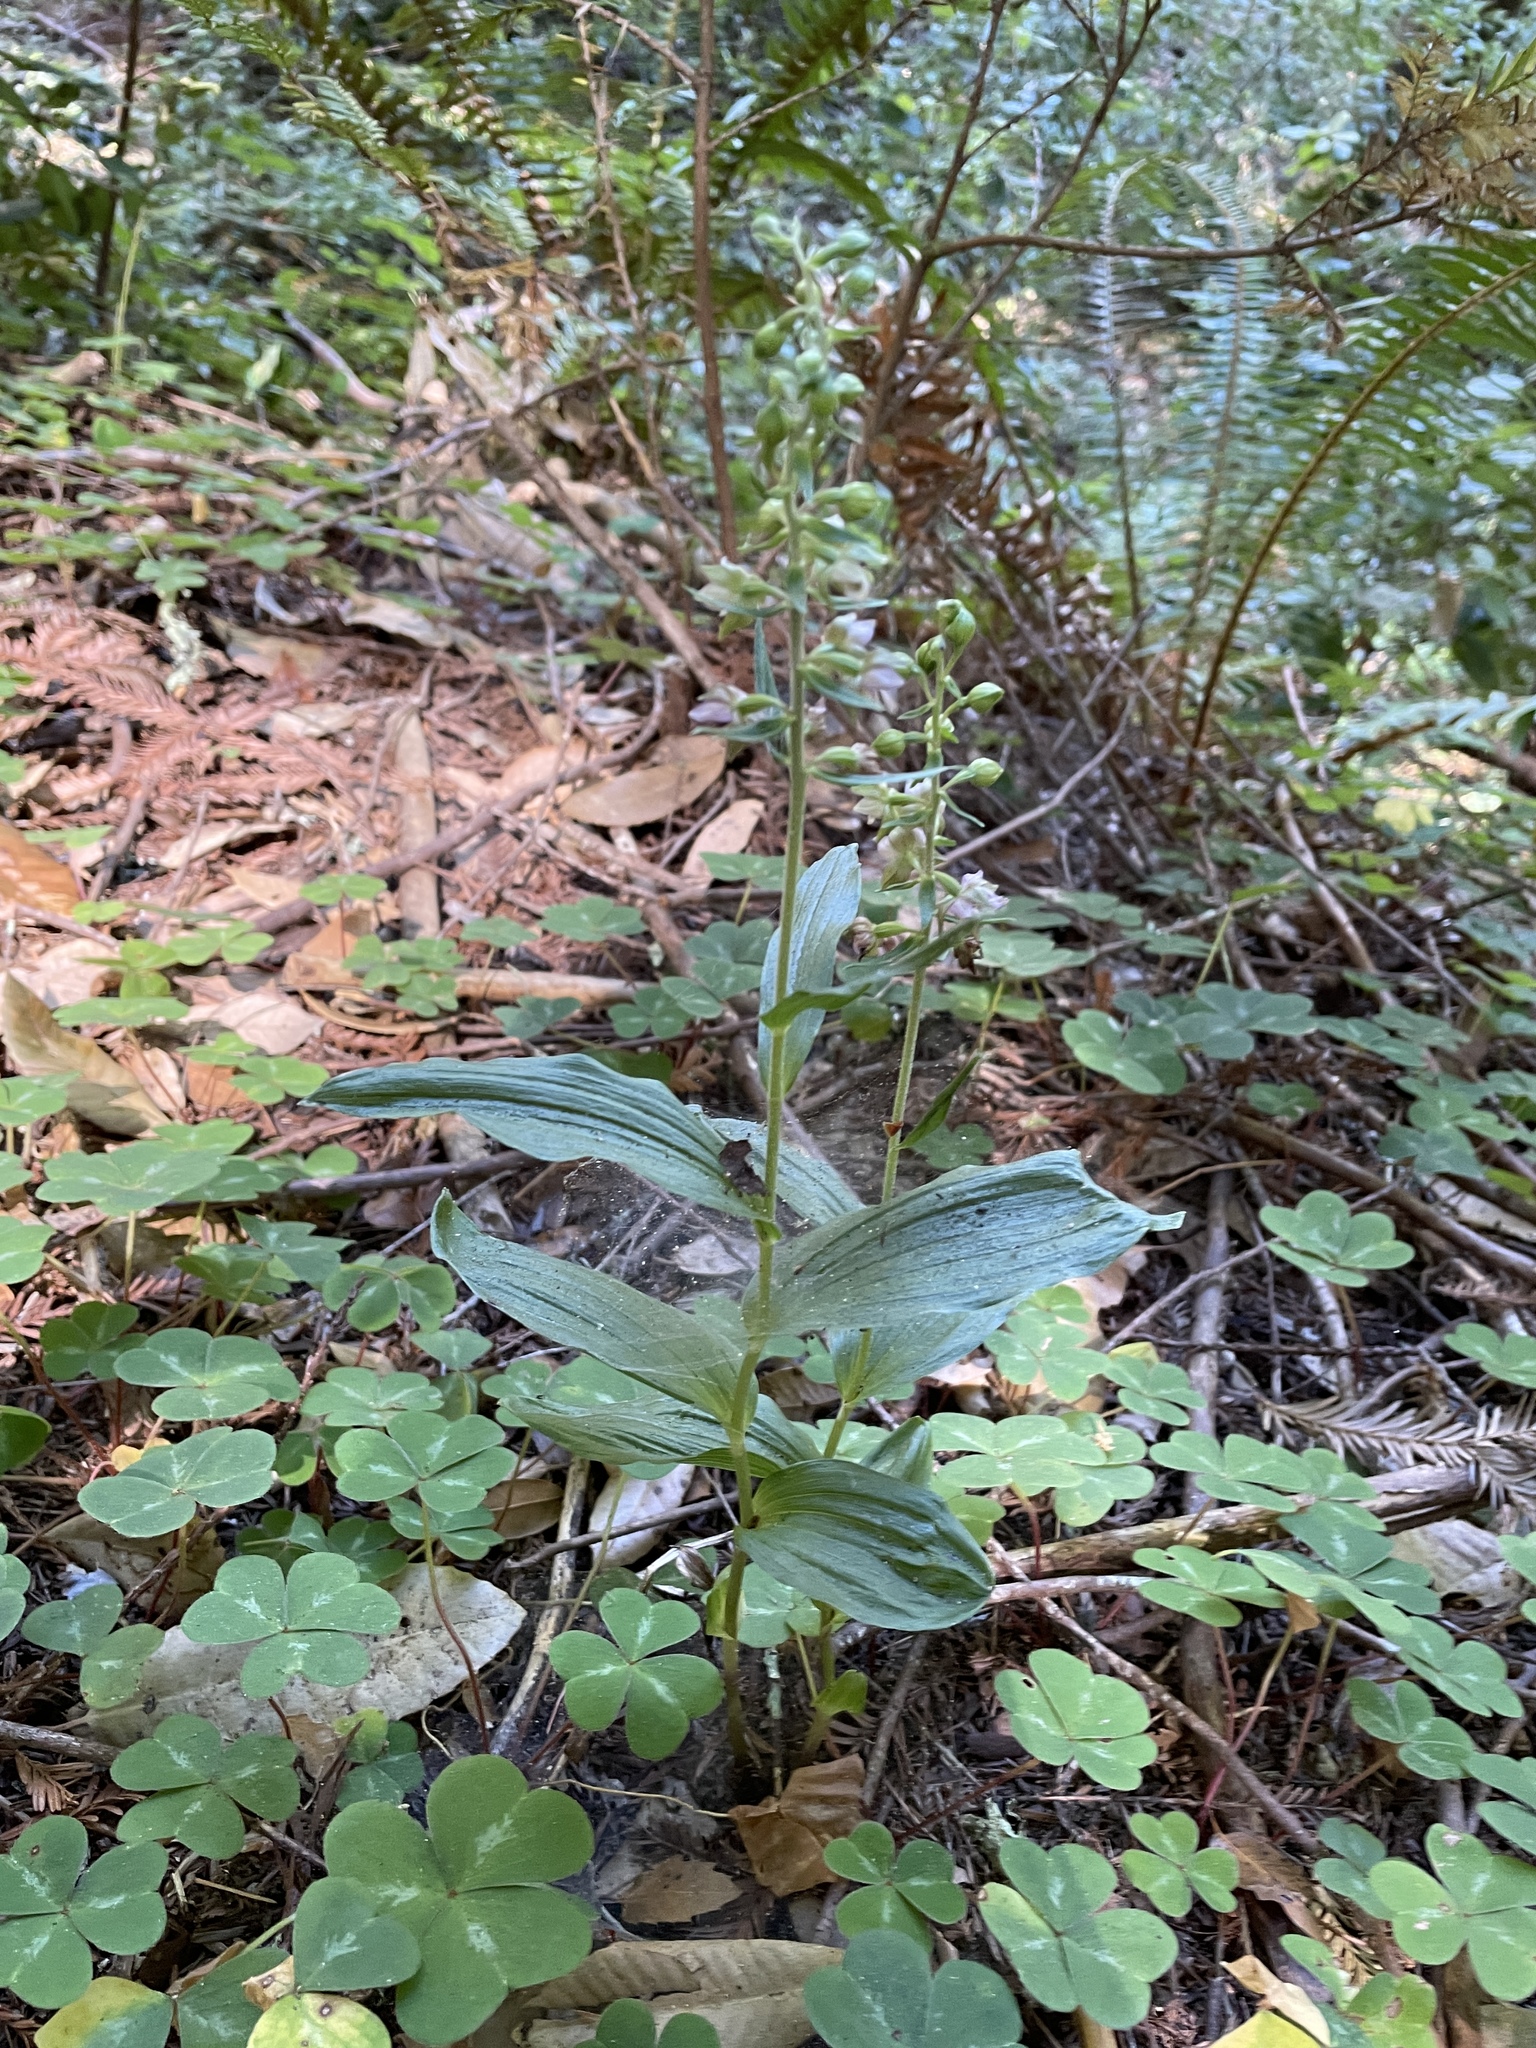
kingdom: Plantae
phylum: Tracheophyta
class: Liliopsida
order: Asparagales
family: Orchidaceae
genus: Epipactis
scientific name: Epipactis helleborine
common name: Broad-leaved helleborine
